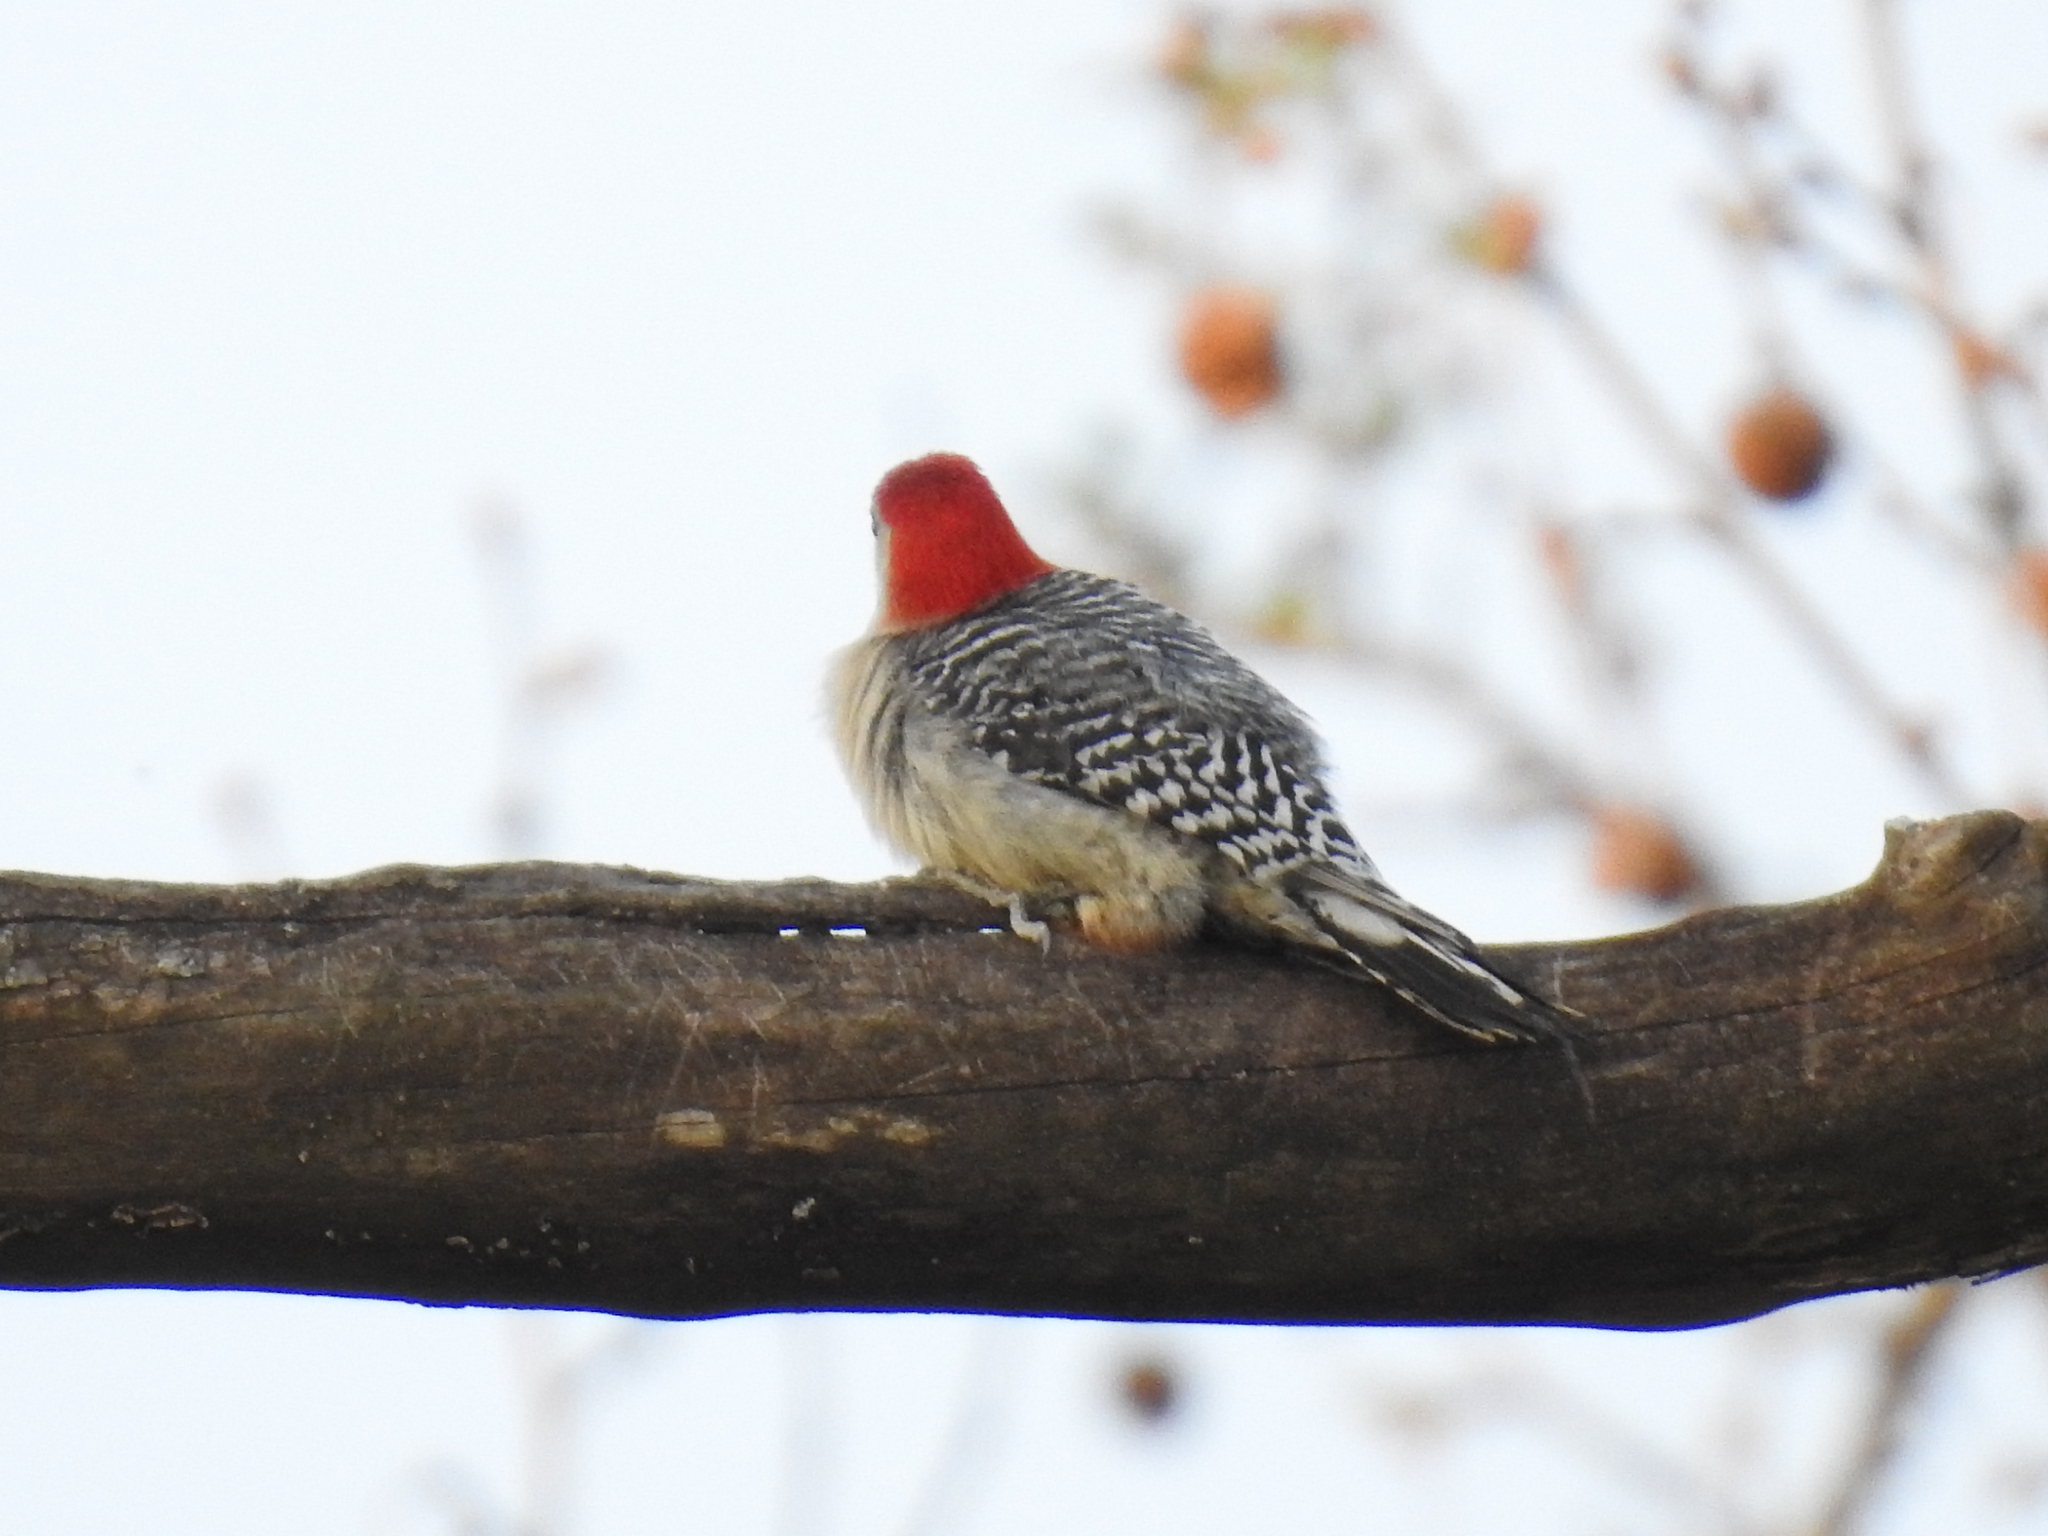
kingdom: Animalia
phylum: Chordata
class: Aves
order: Piciformes
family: Picidae
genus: Melanerpes
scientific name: Melanerpes carolinus
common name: Red-bellied woodpecker
